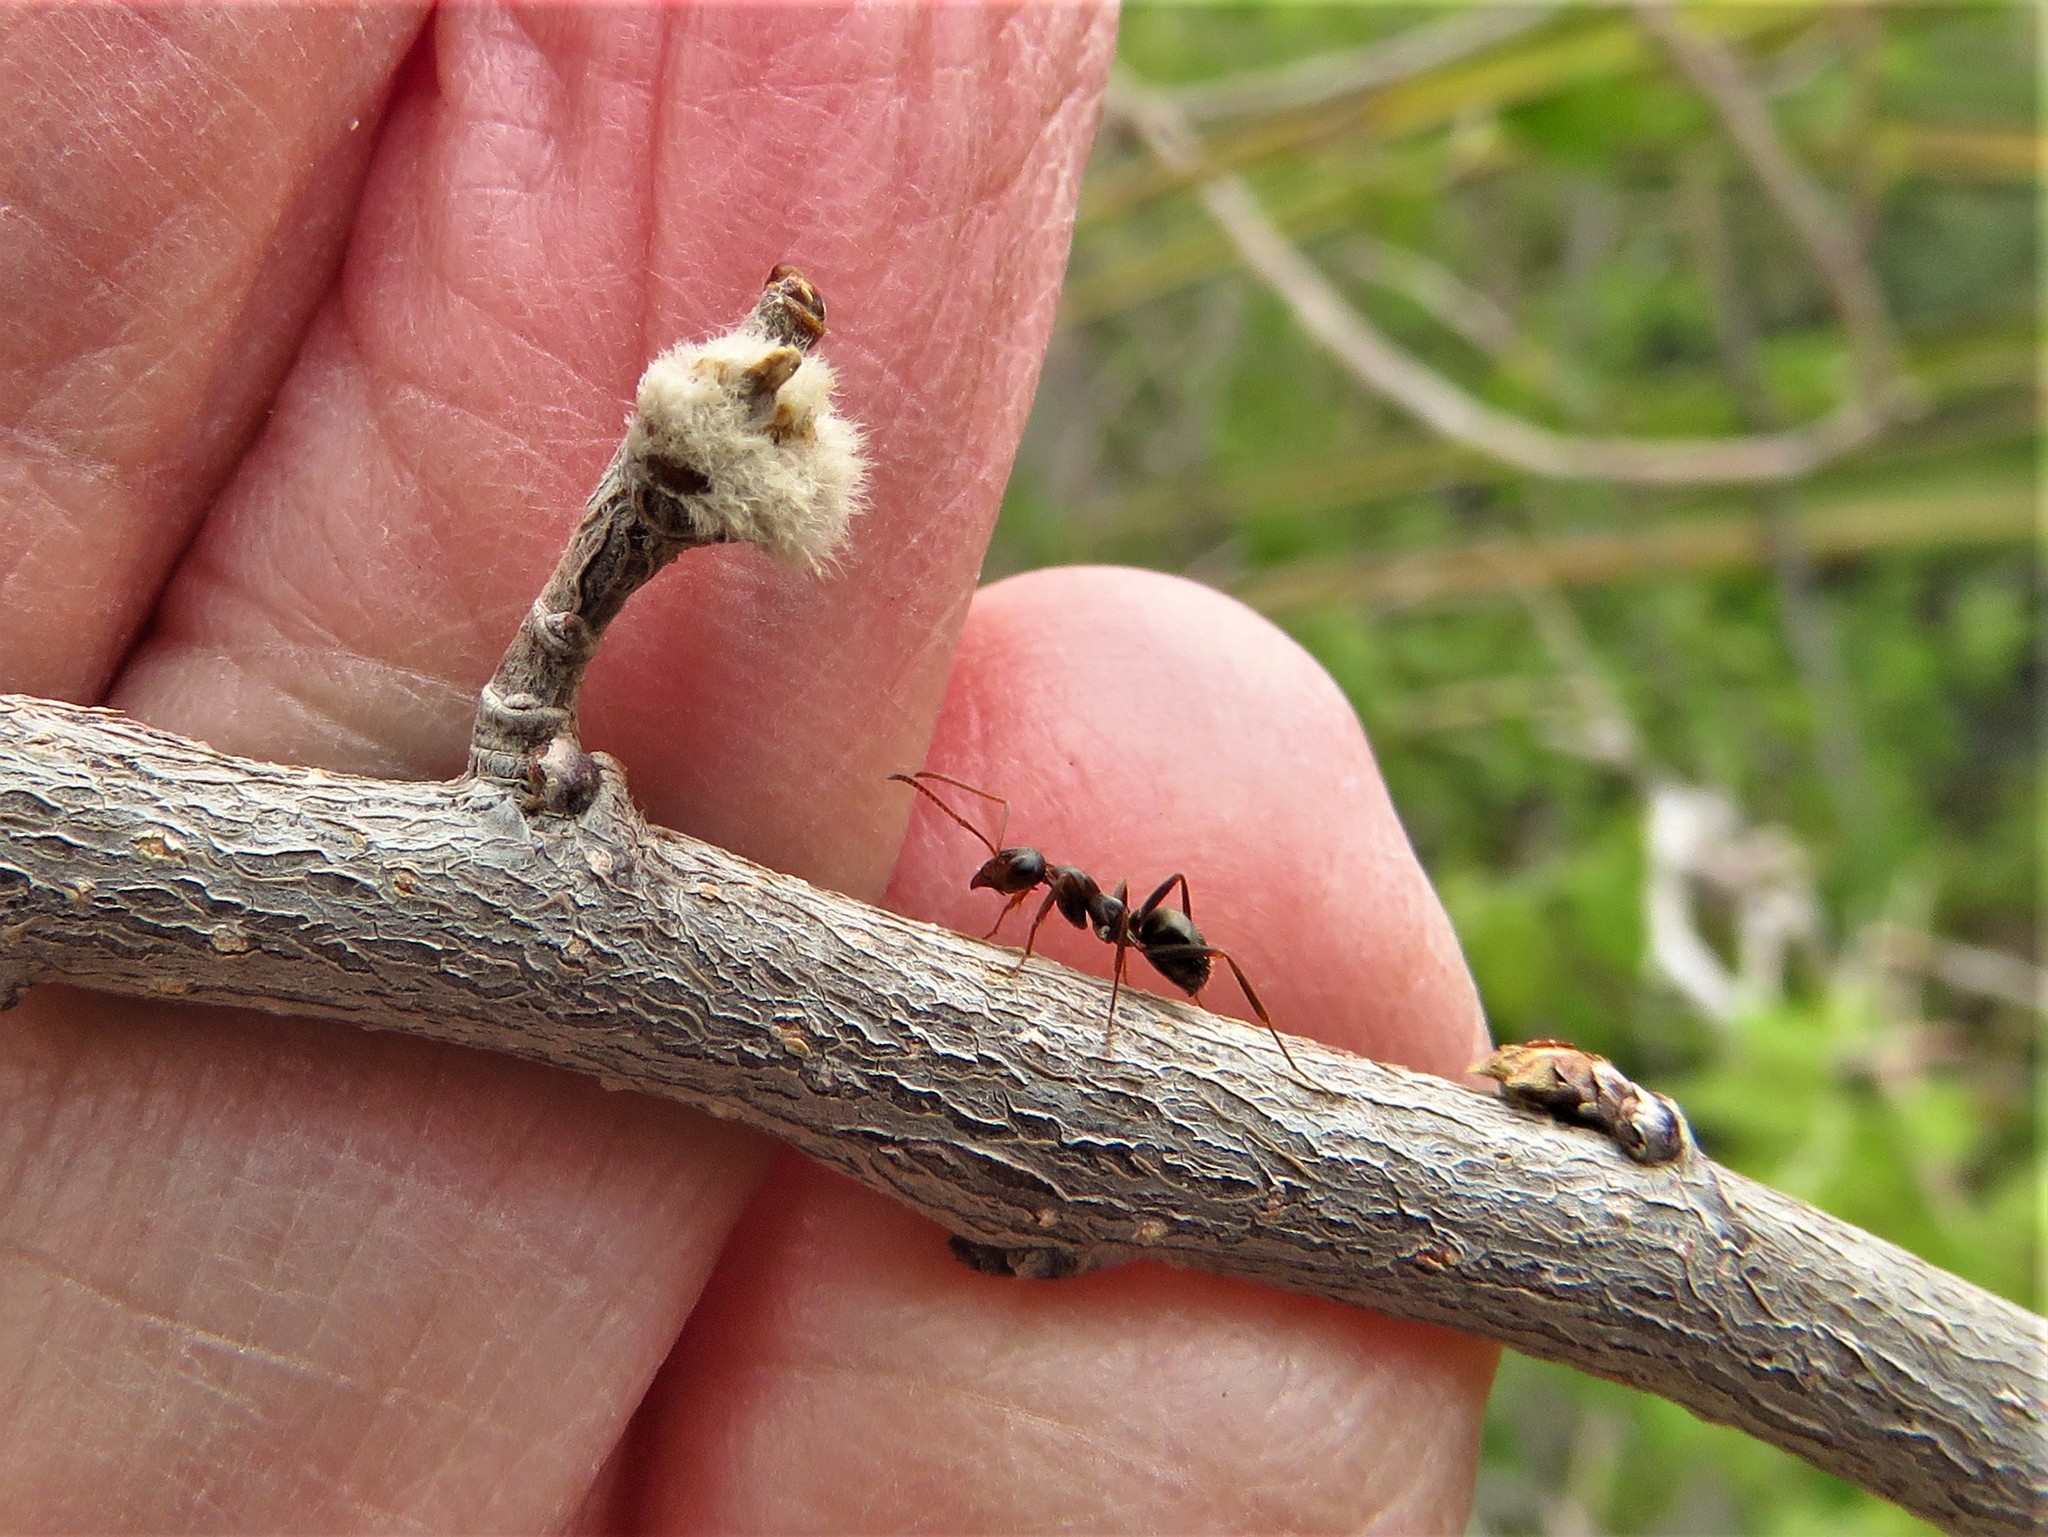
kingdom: Animalia
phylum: Arthropoda
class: Insecta
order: Hymenoptera
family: Formicidae
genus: Formica
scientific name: Formica gnava
